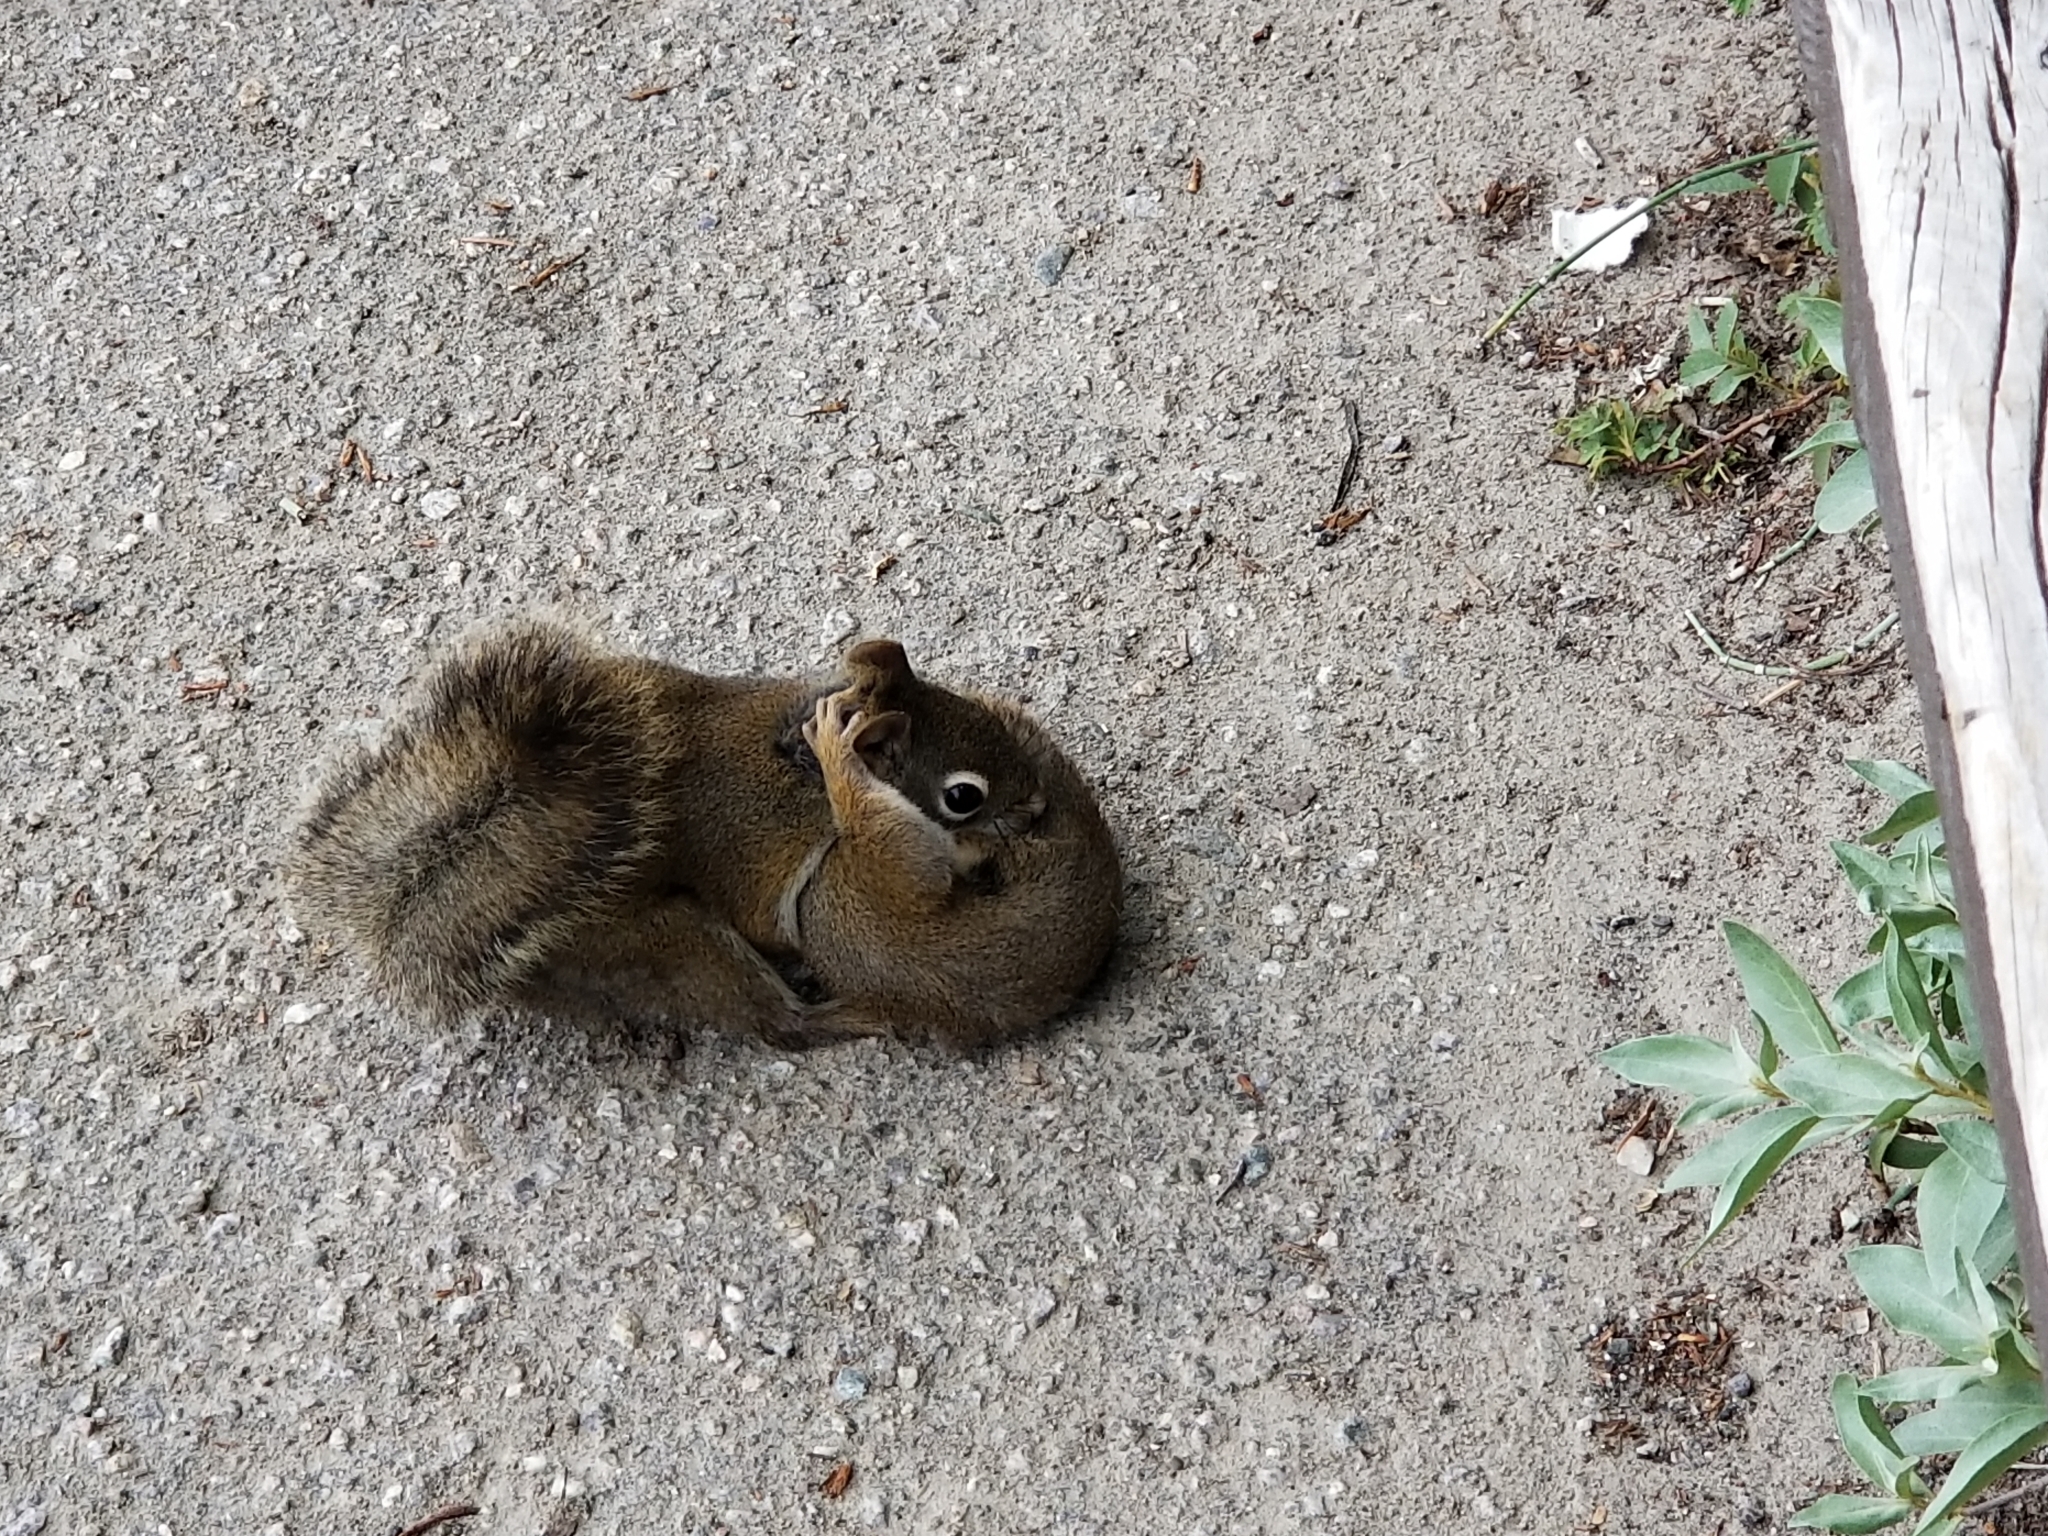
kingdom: Animalia
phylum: Chordata
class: Mammalia
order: Rodentia
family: Sciuridae
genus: Tamiasciurus
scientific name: Tamiasciurus hudsonicus
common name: Red squirrel
